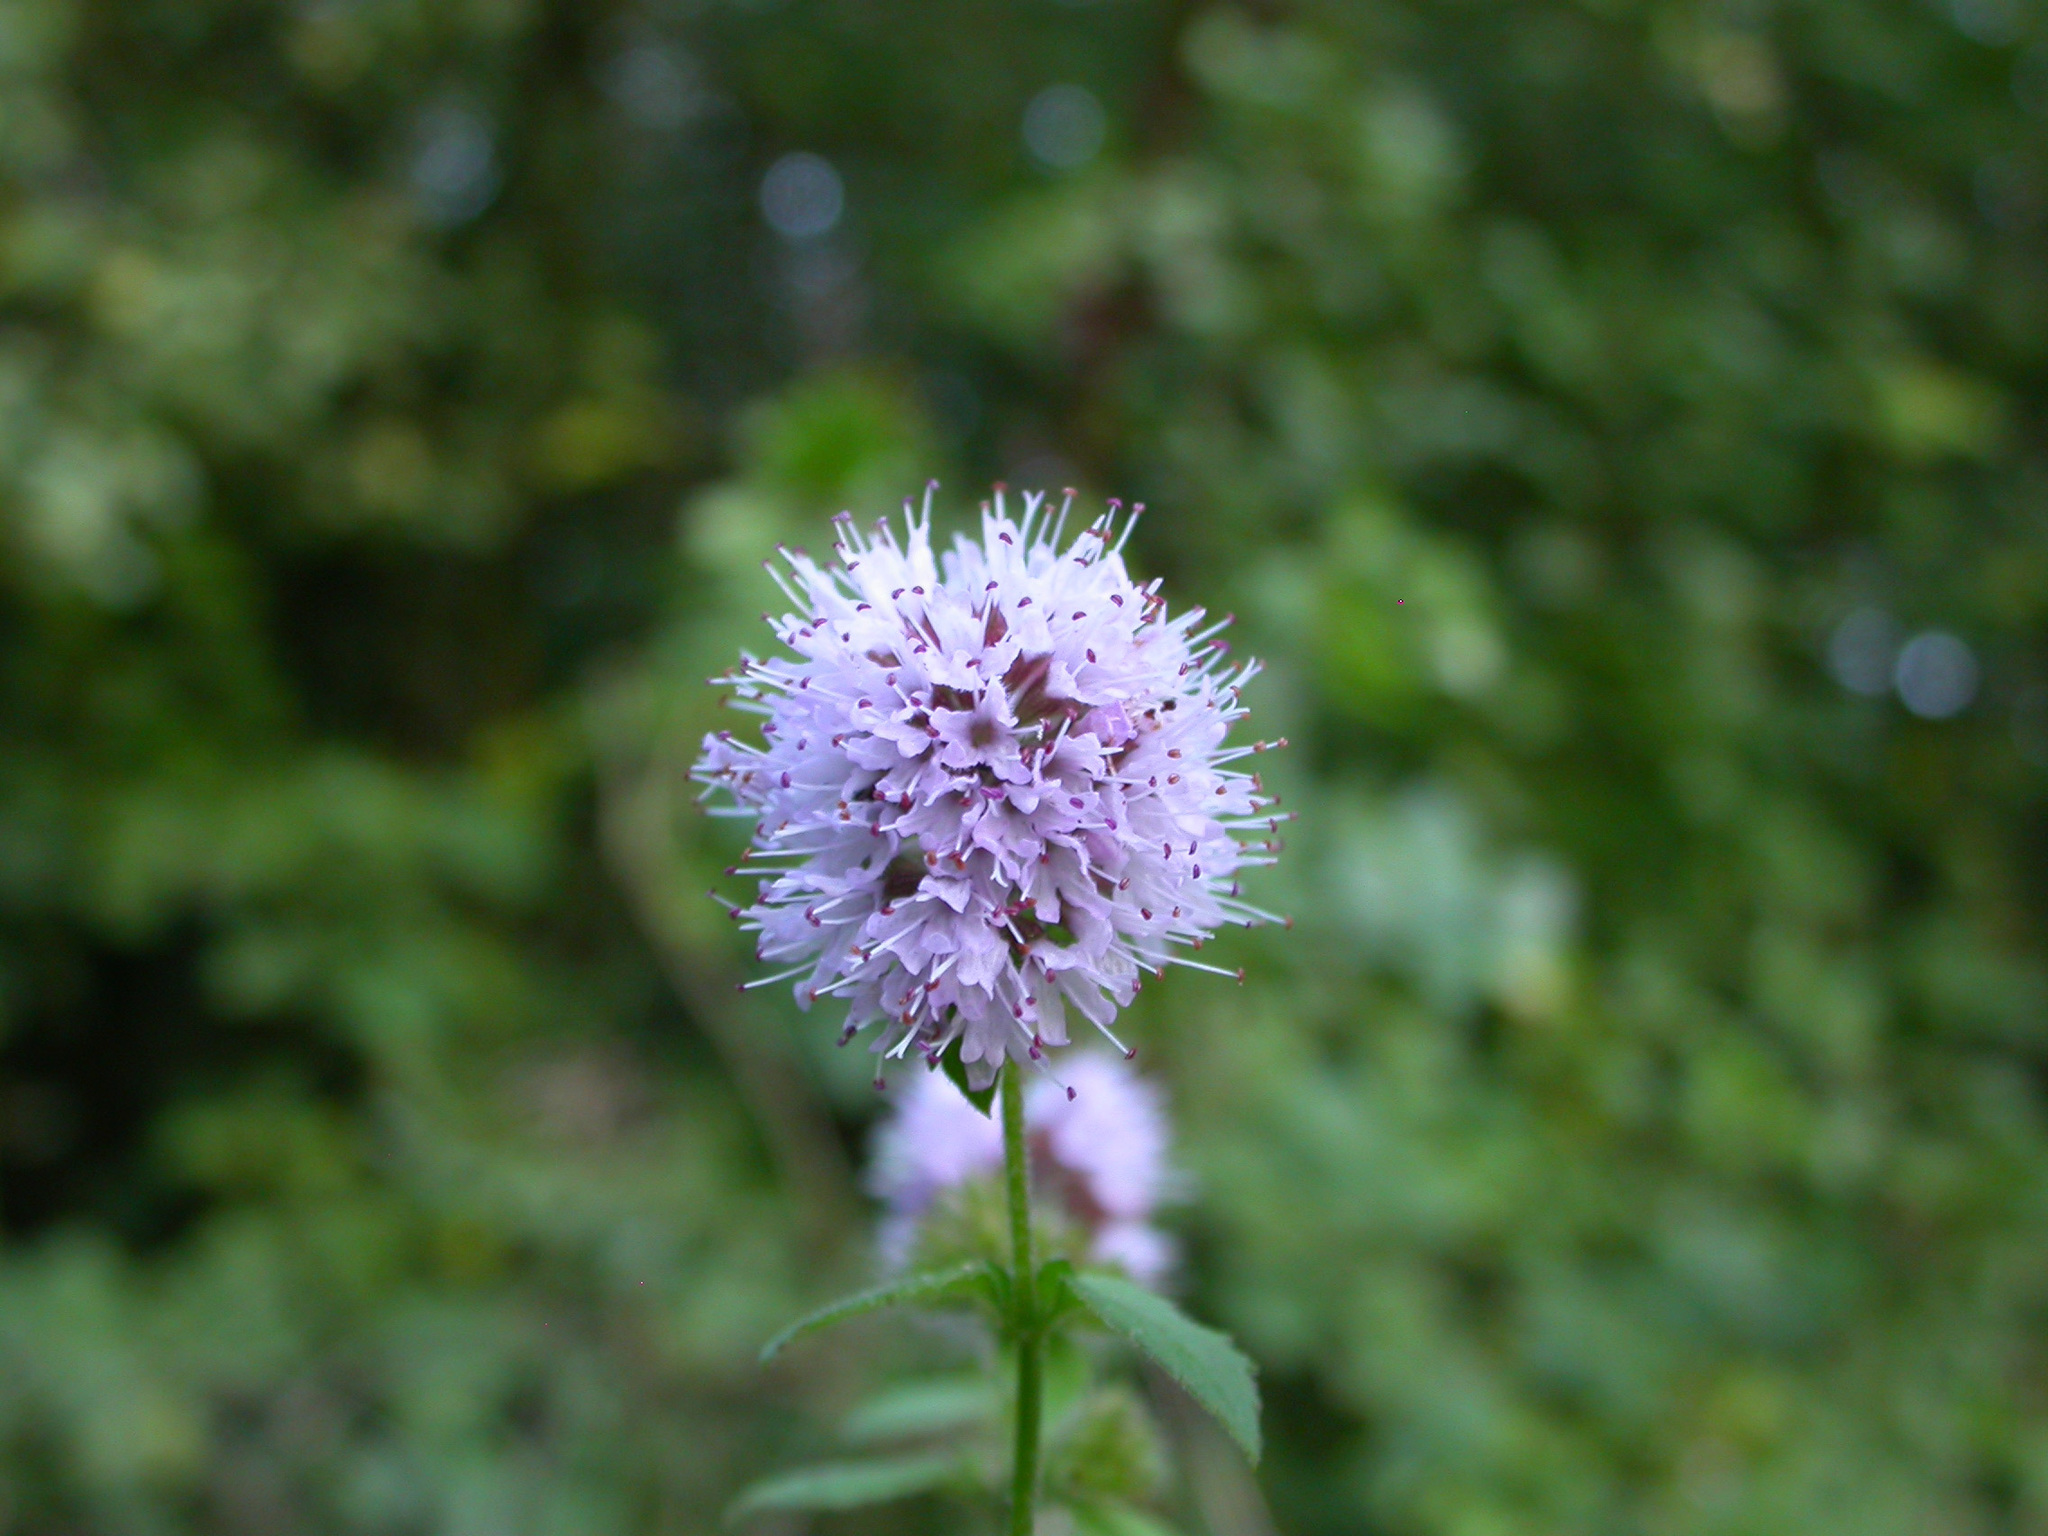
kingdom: Plantae
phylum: Tracheophyta
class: Magnoliopsida
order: Lamiales
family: Lamiaceae
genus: Mentha
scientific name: Mentha aquatica
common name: Water mint
